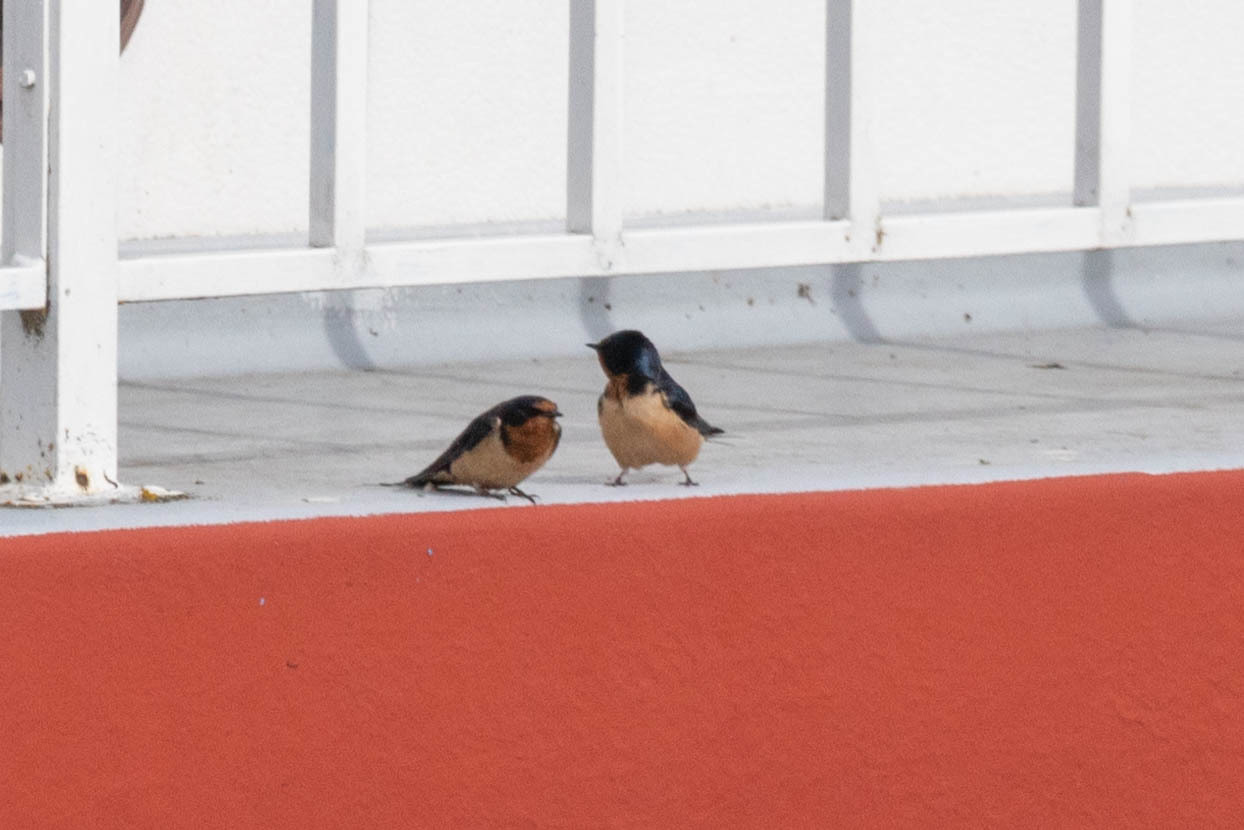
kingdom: Animalia
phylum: Chordata
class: Aves
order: Passeriformes
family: Hirundinidae
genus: Hirundo
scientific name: Hirundo rustica
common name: Barn swallow
